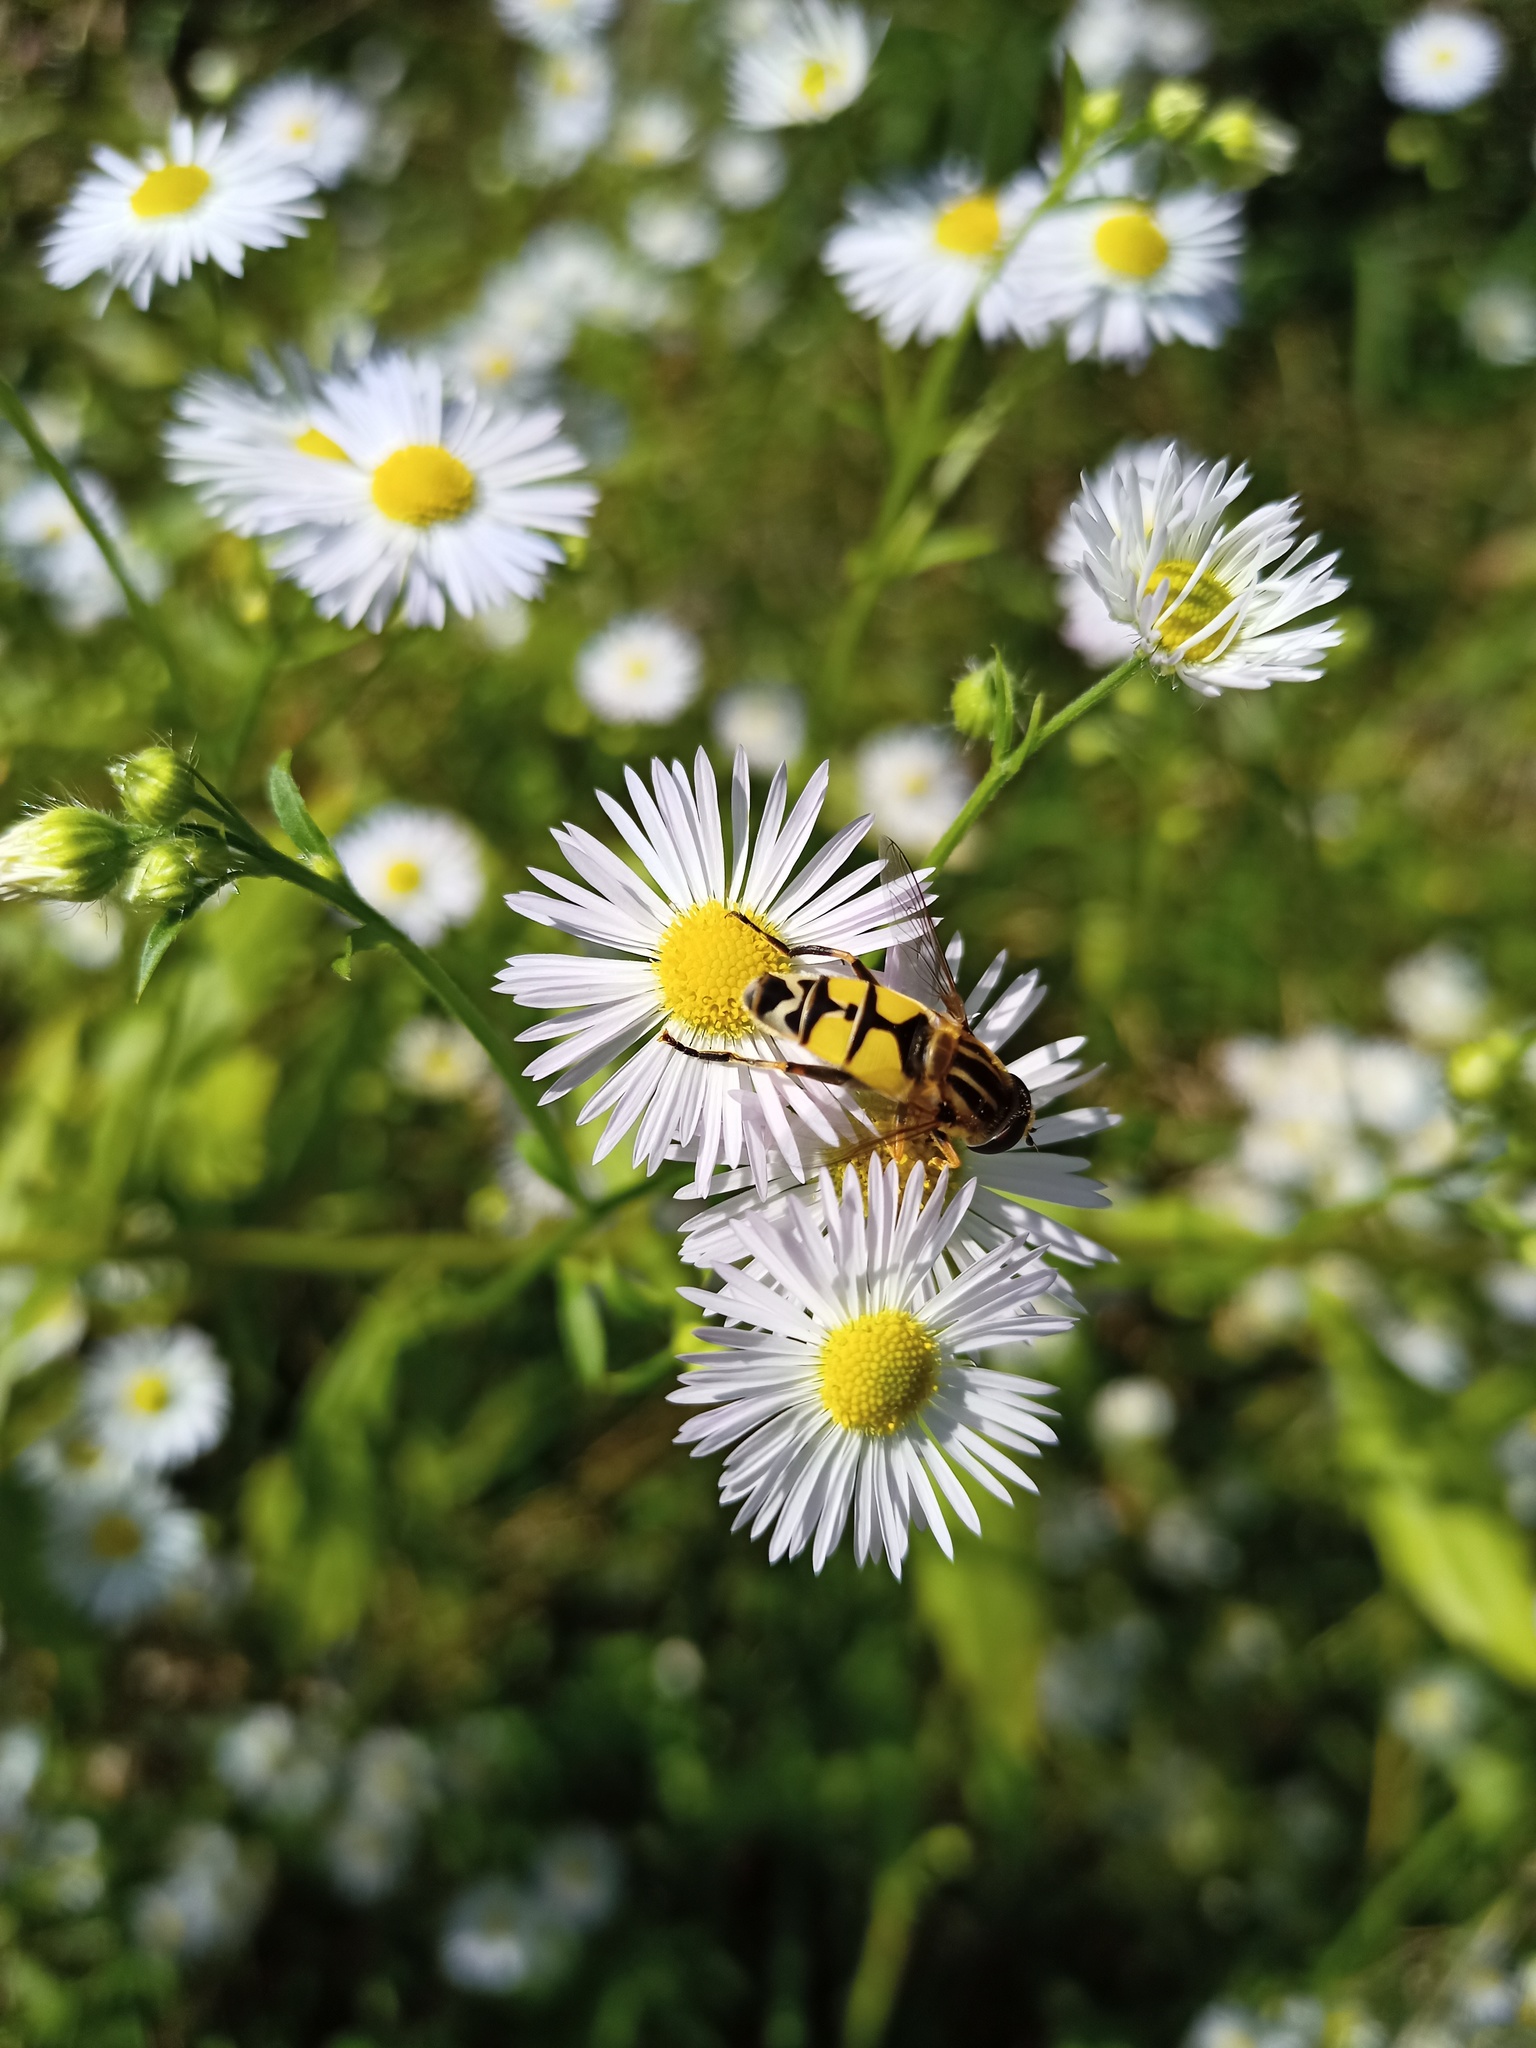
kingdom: Animalia
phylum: Arthropoda
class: Insecta
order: Diptera
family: Syrphidae
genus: Helophilus
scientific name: Helophilus trivittatus
